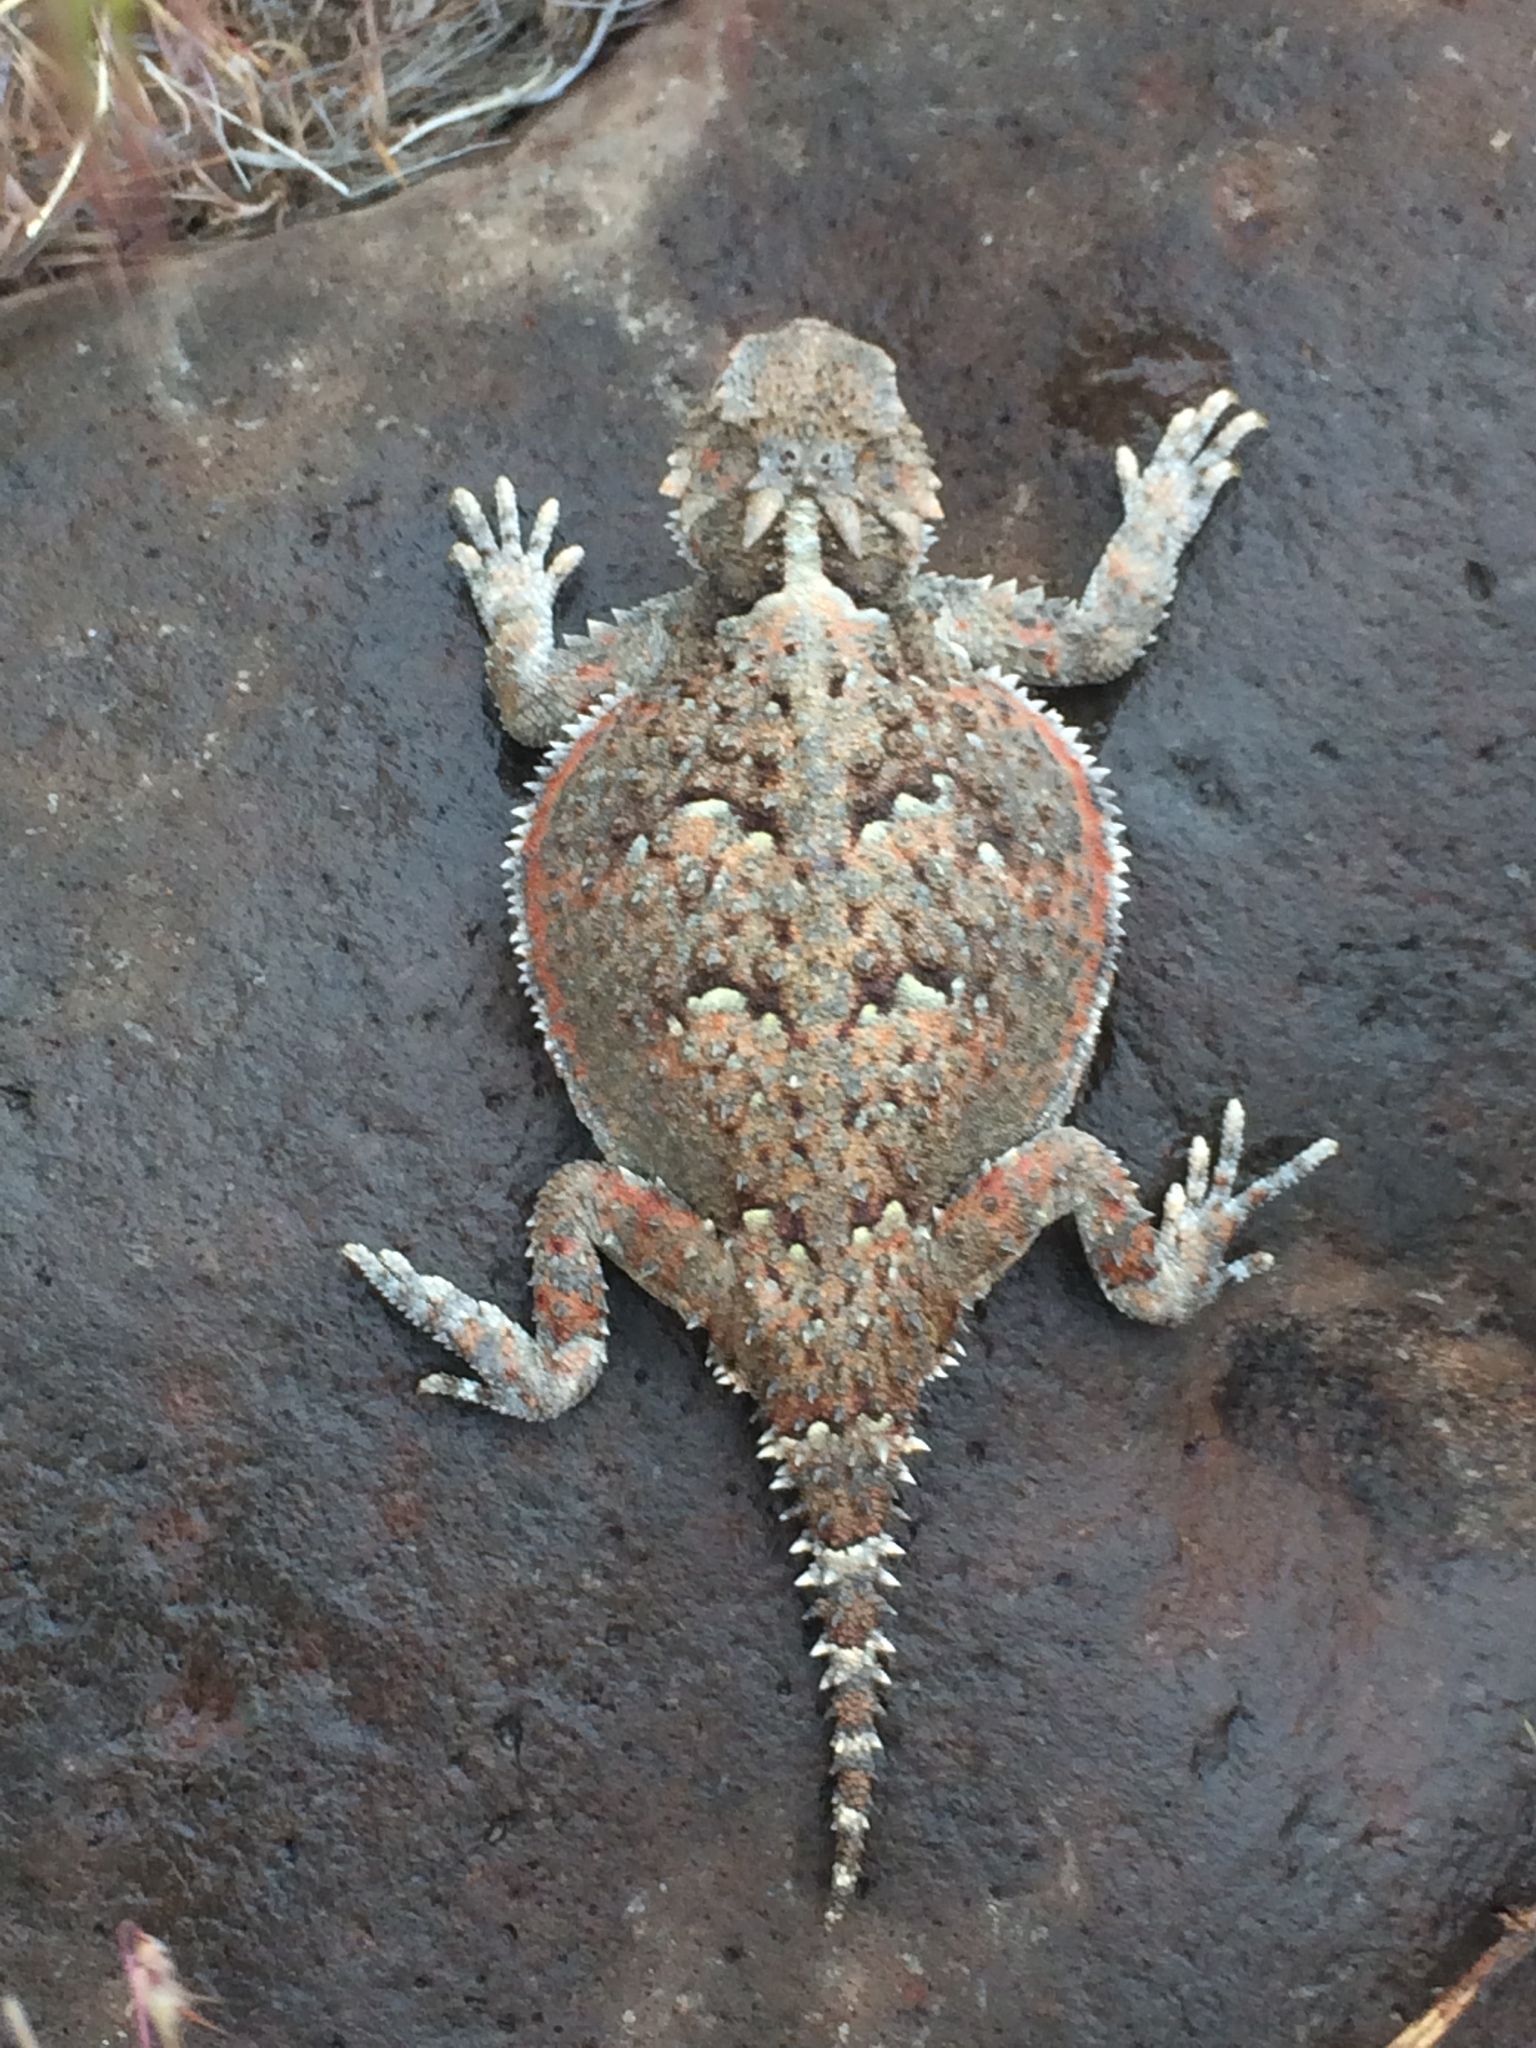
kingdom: Animalia
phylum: Chordata
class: Squamata
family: Phrynosomatidae
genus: Phrynosoma
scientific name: Phrynosoma platyrhinos
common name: Desert horned lizard
